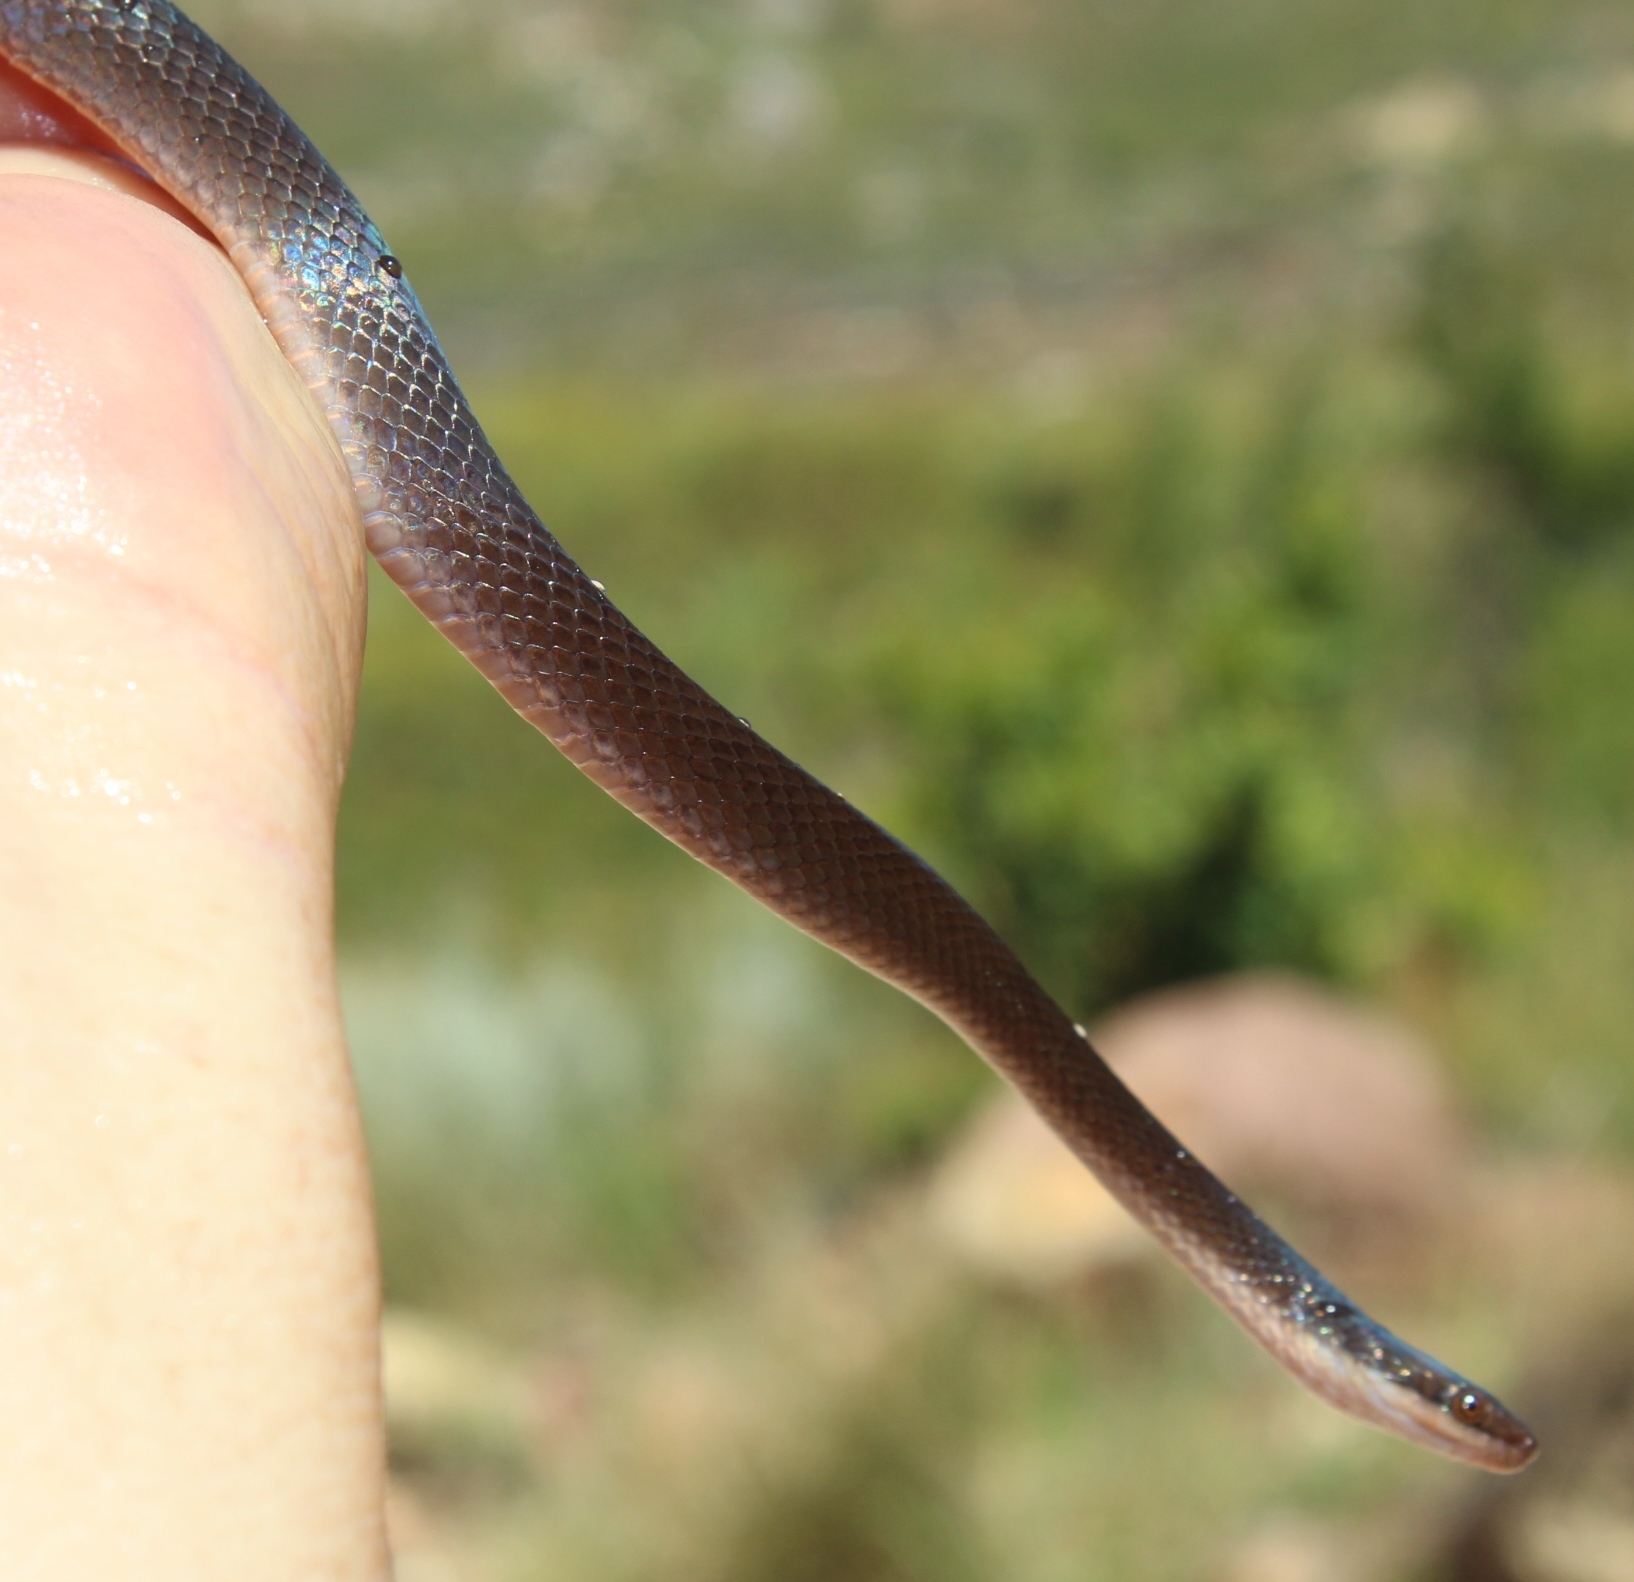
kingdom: Animalia
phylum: Chordata
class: Squamata
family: Lamprophiidae
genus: Lycodonomorphus
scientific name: Lycodonomorphus rufulus
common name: Brown water snake
